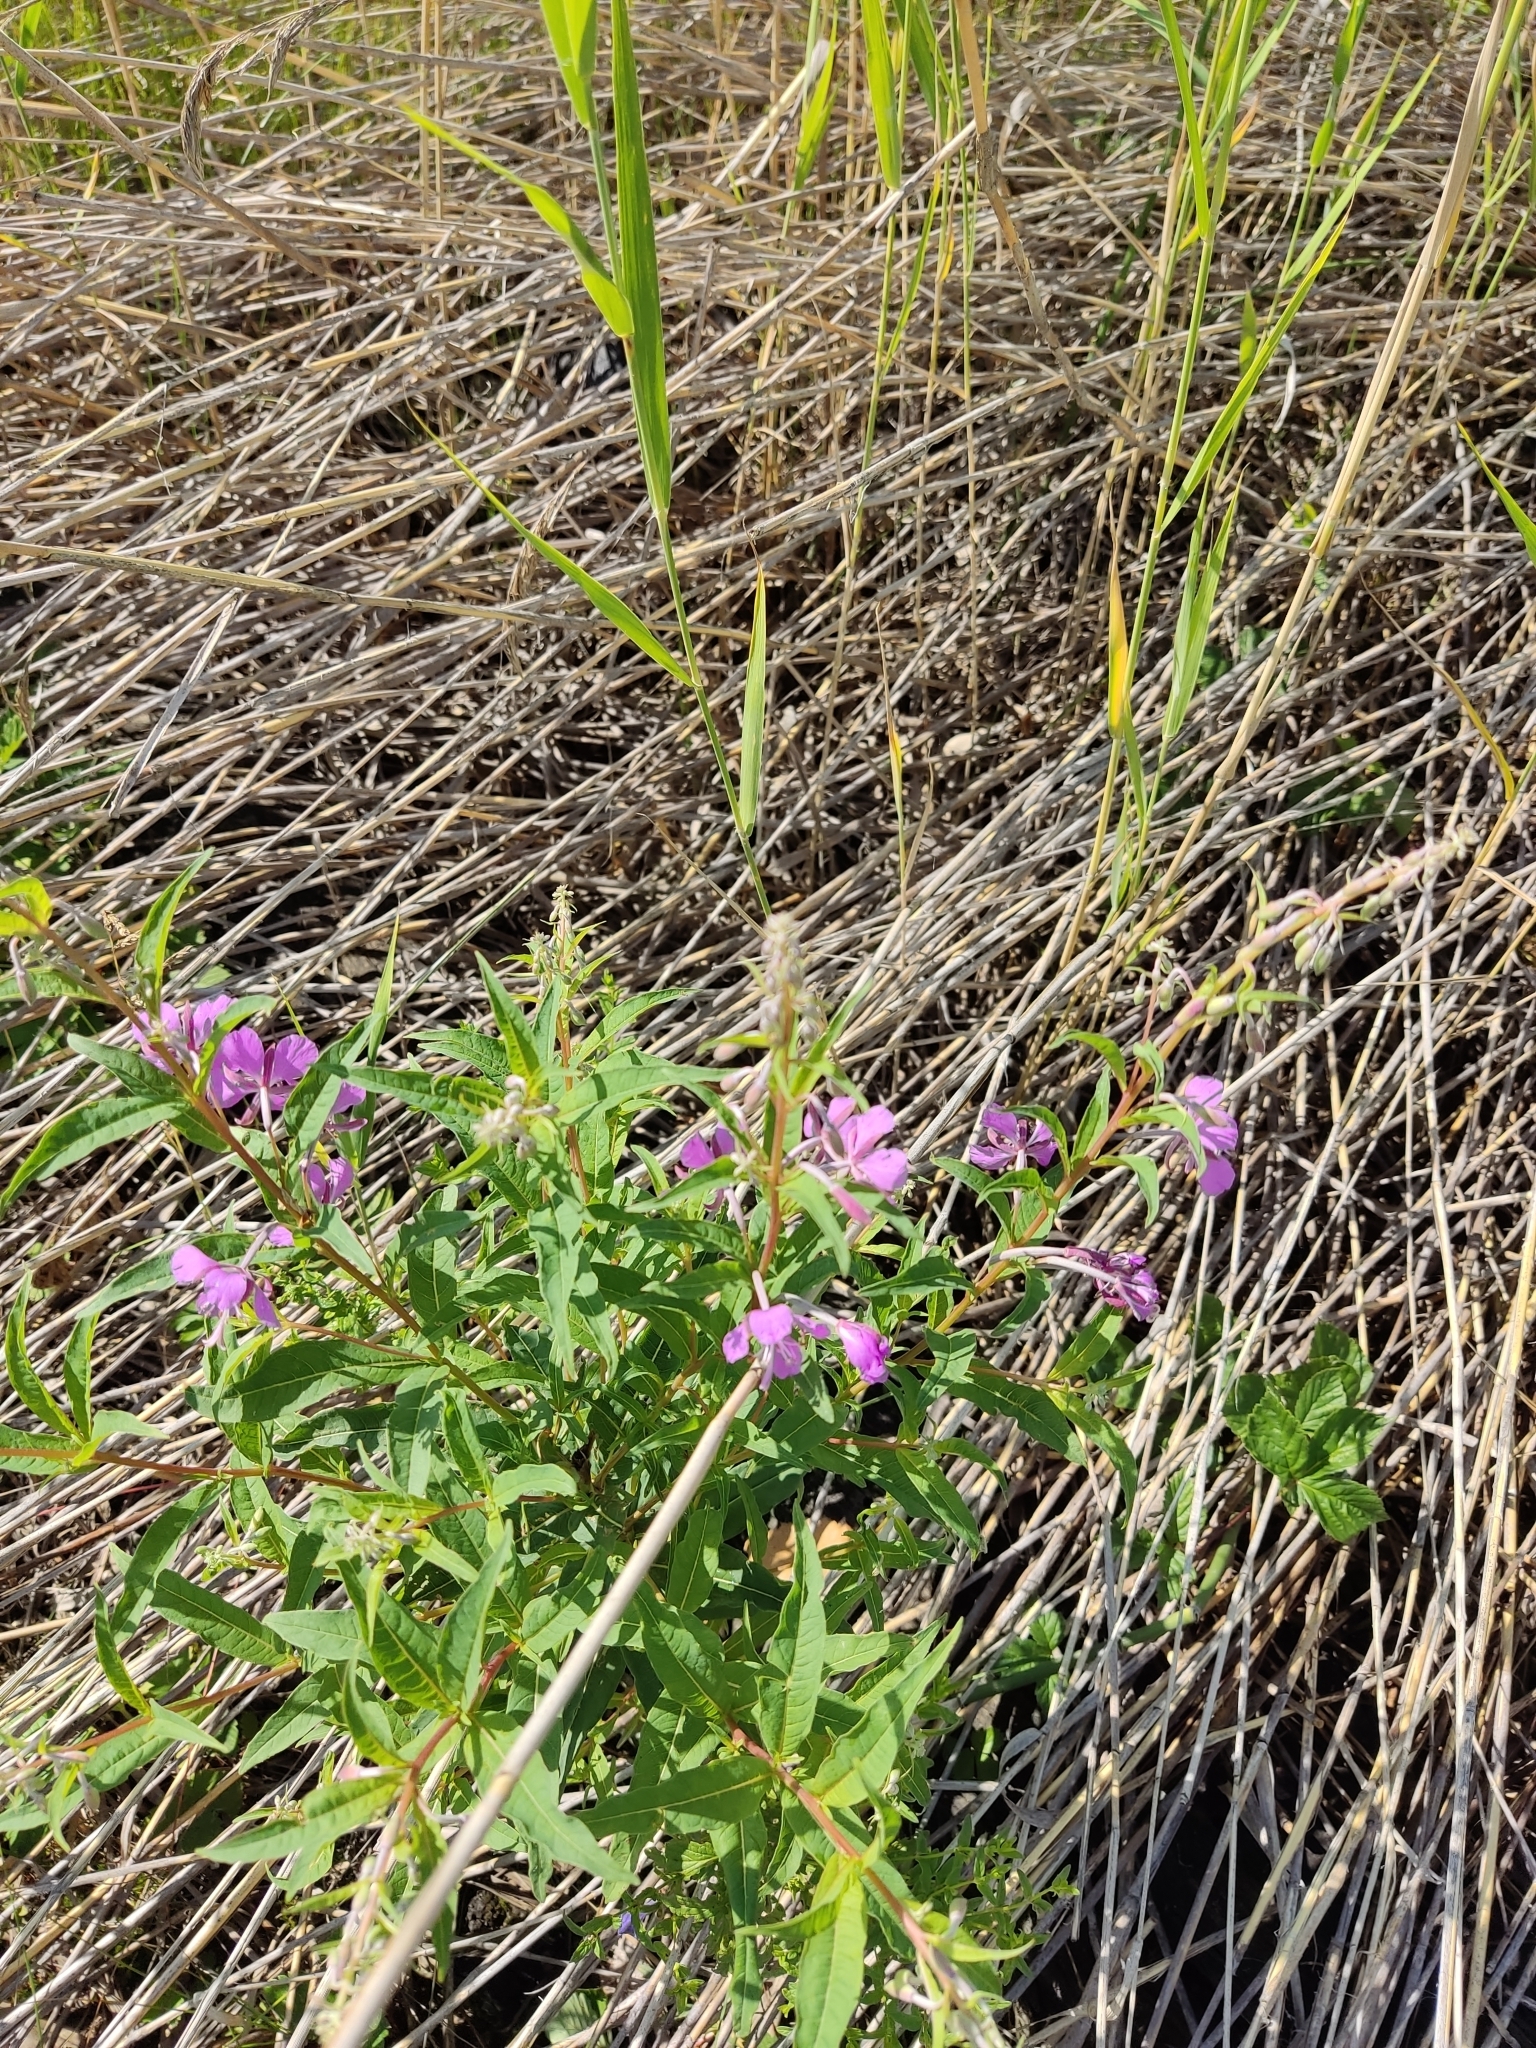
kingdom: Plantae
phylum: Tracheophyta
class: Magnoliopsida
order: Myrtales
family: Onagraceae
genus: Chamaenerion
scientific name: Chamaenerion angustifolium
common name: Fireweed
